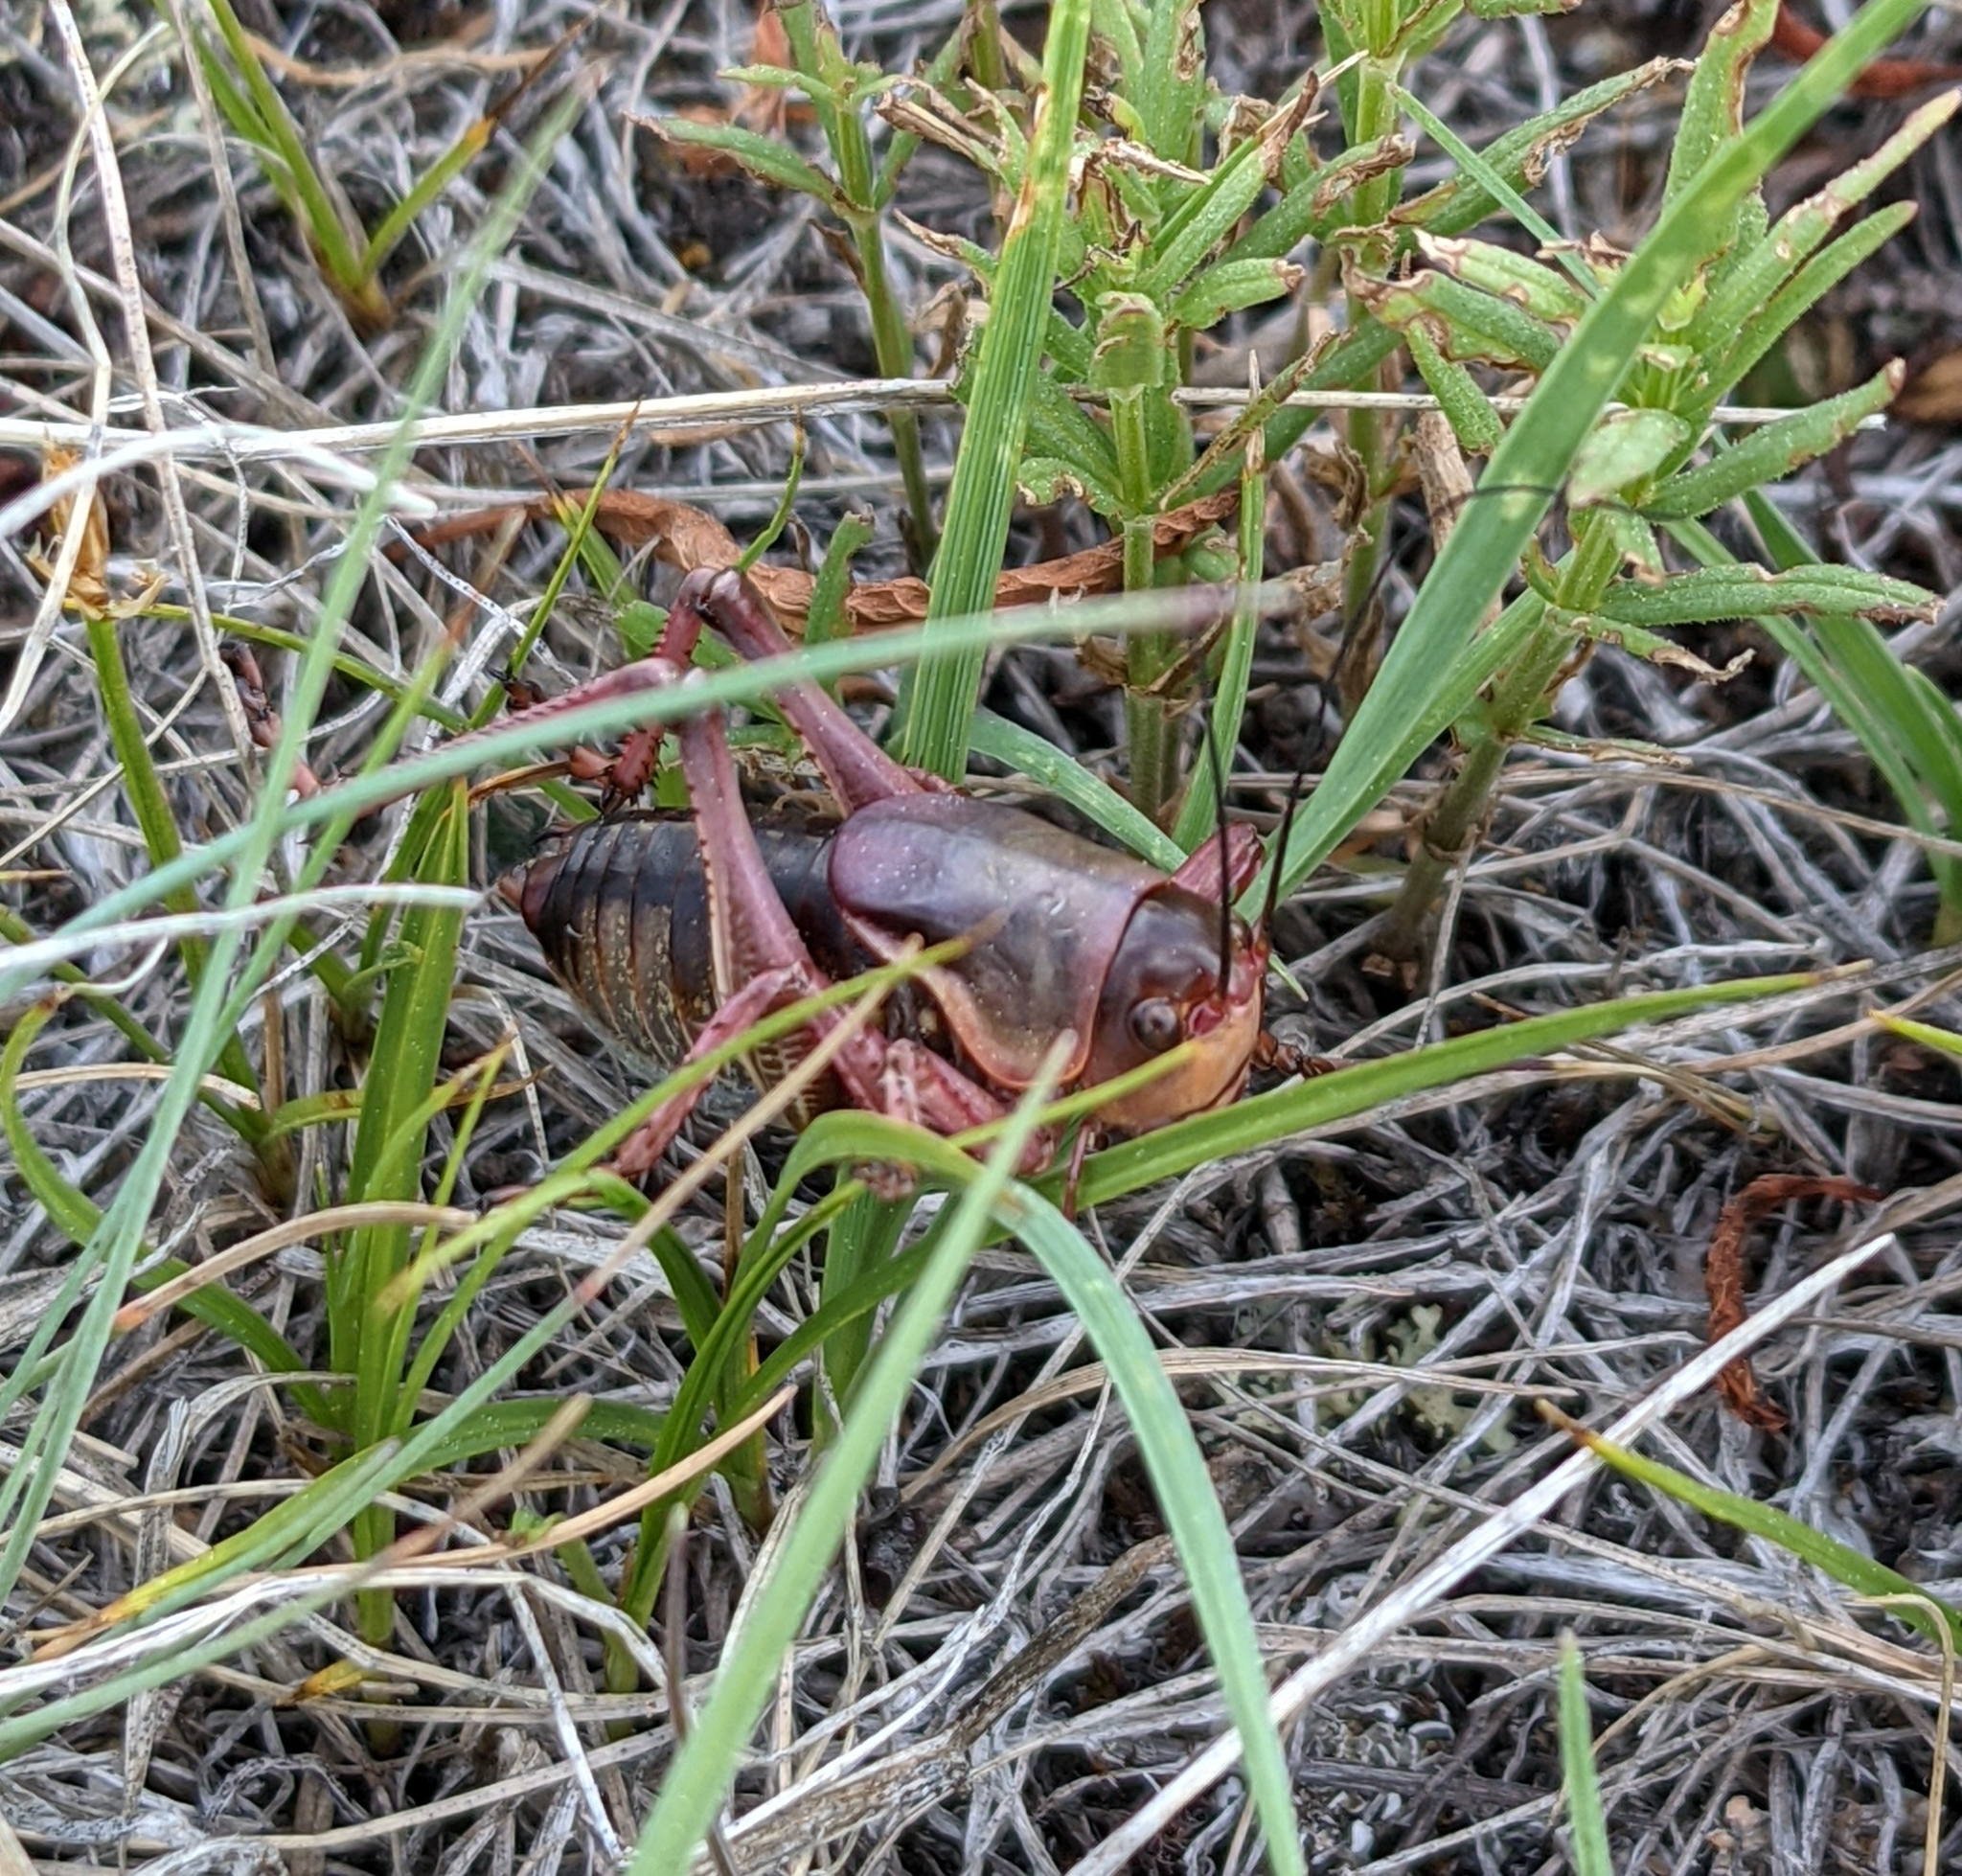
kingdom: Animalia
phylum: Arthropoda
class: Insecta
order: Orthoptera
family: Tettigoniidae
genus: Anabrus
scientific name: Anabrus simplex
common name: Mormon cricket
